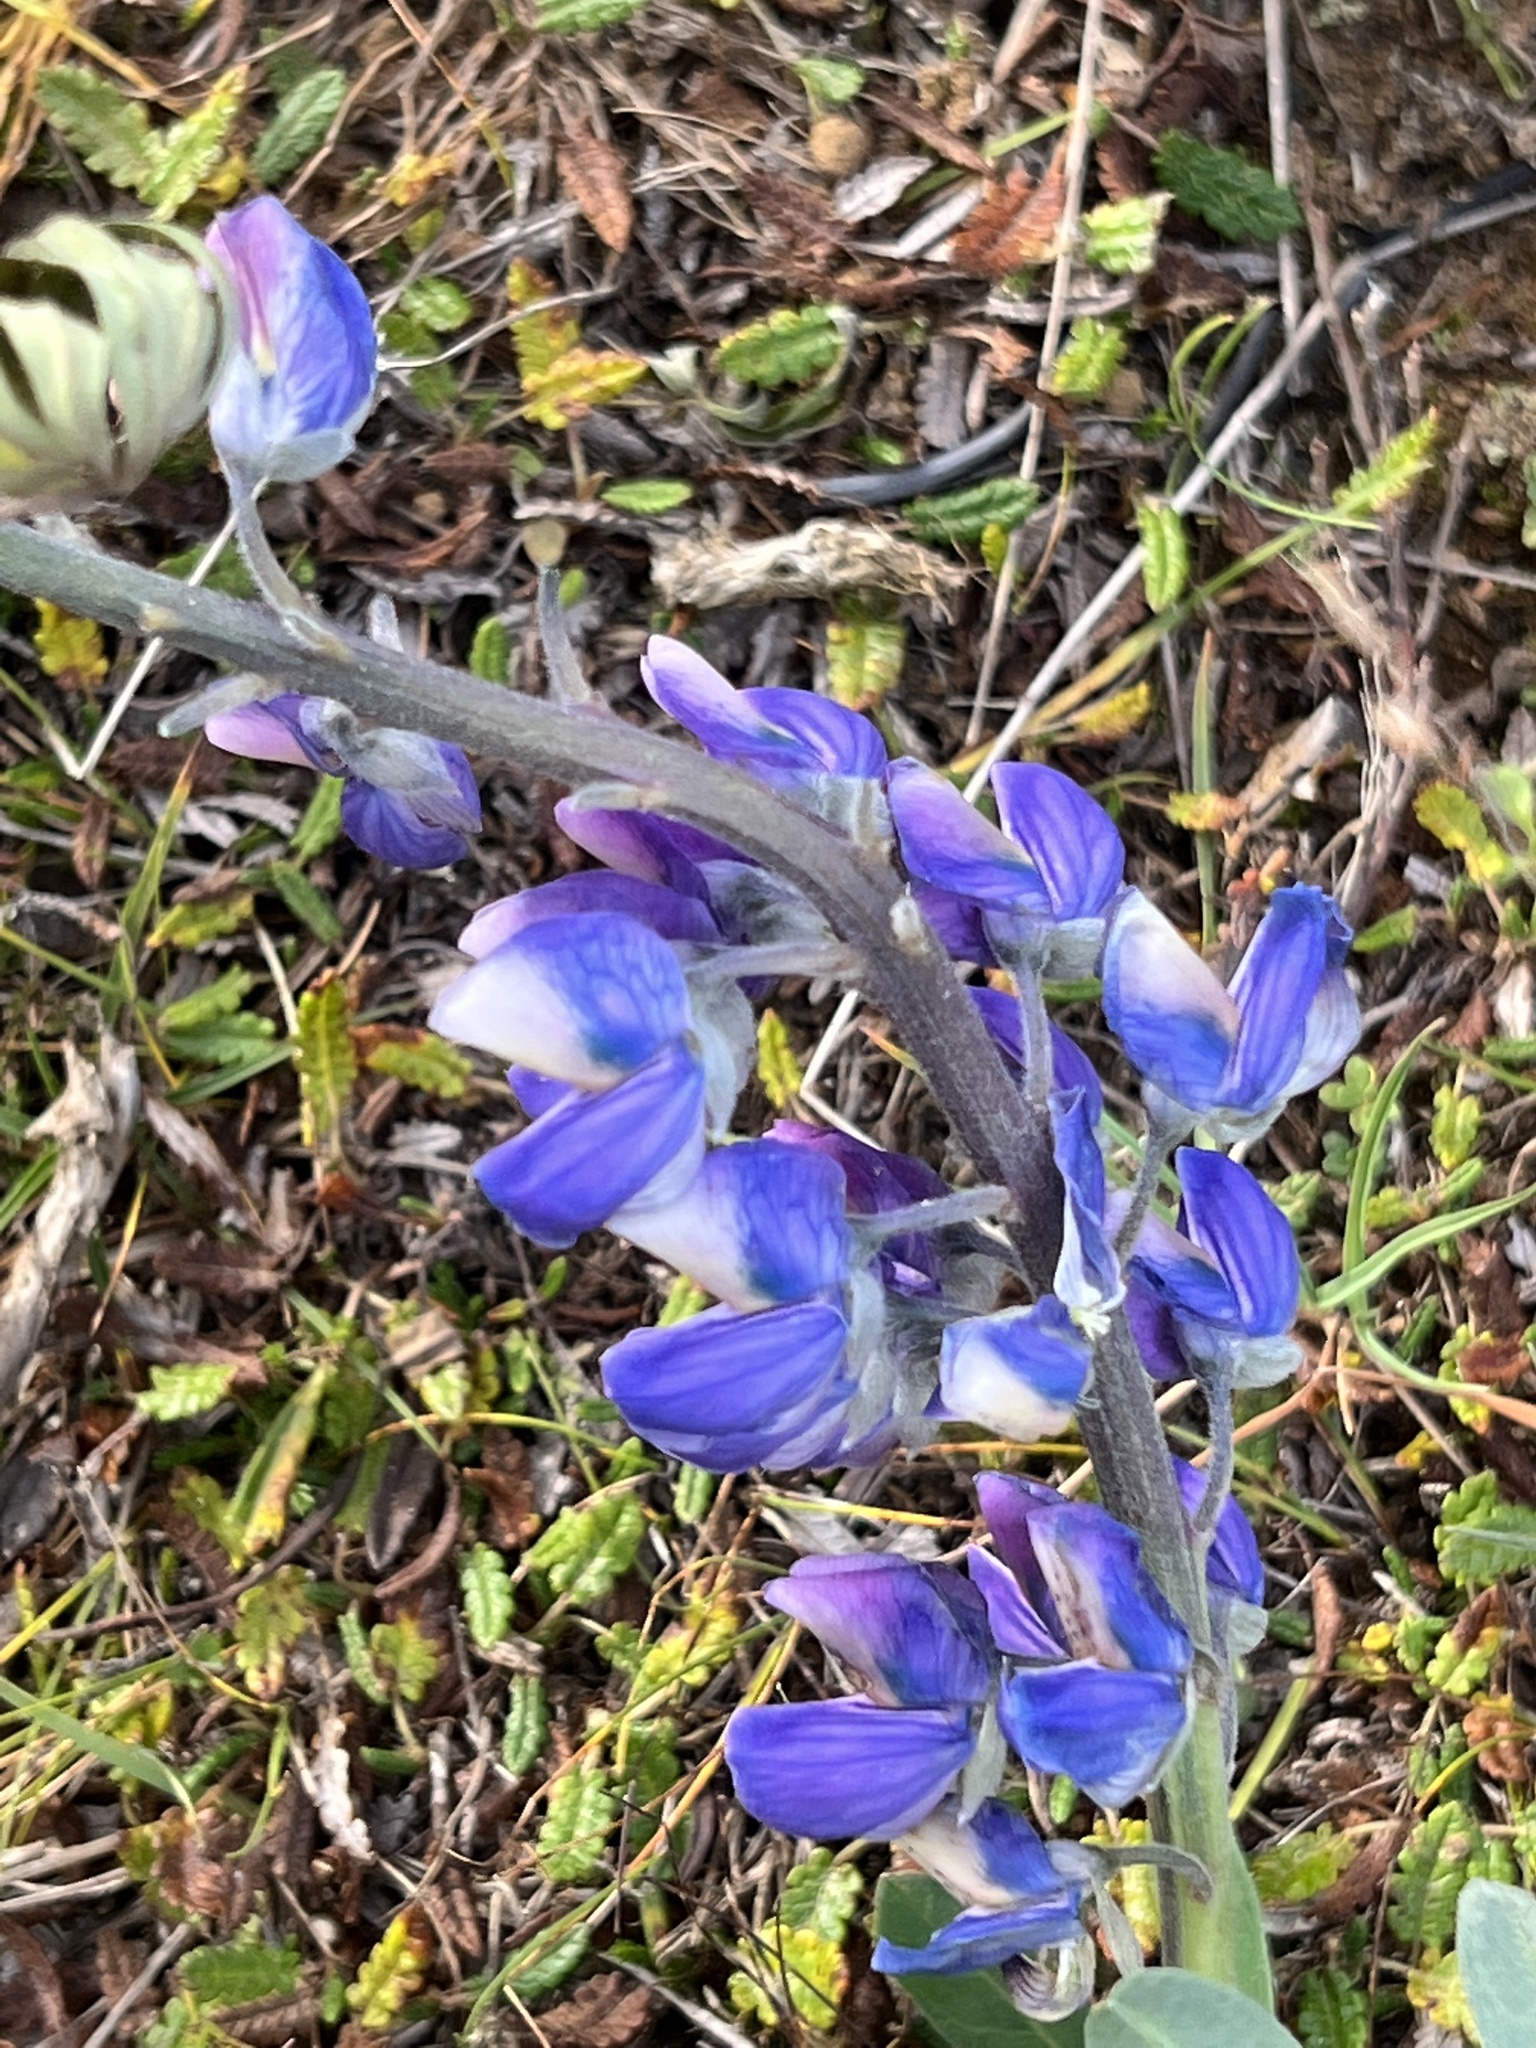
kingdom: Plantae
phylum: Tracheophyta
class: Magnoliopsida
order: Fabales
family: Fabaceae
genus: Lupinus
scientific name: Lupinus nootkatensis
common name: Nootka lupine
